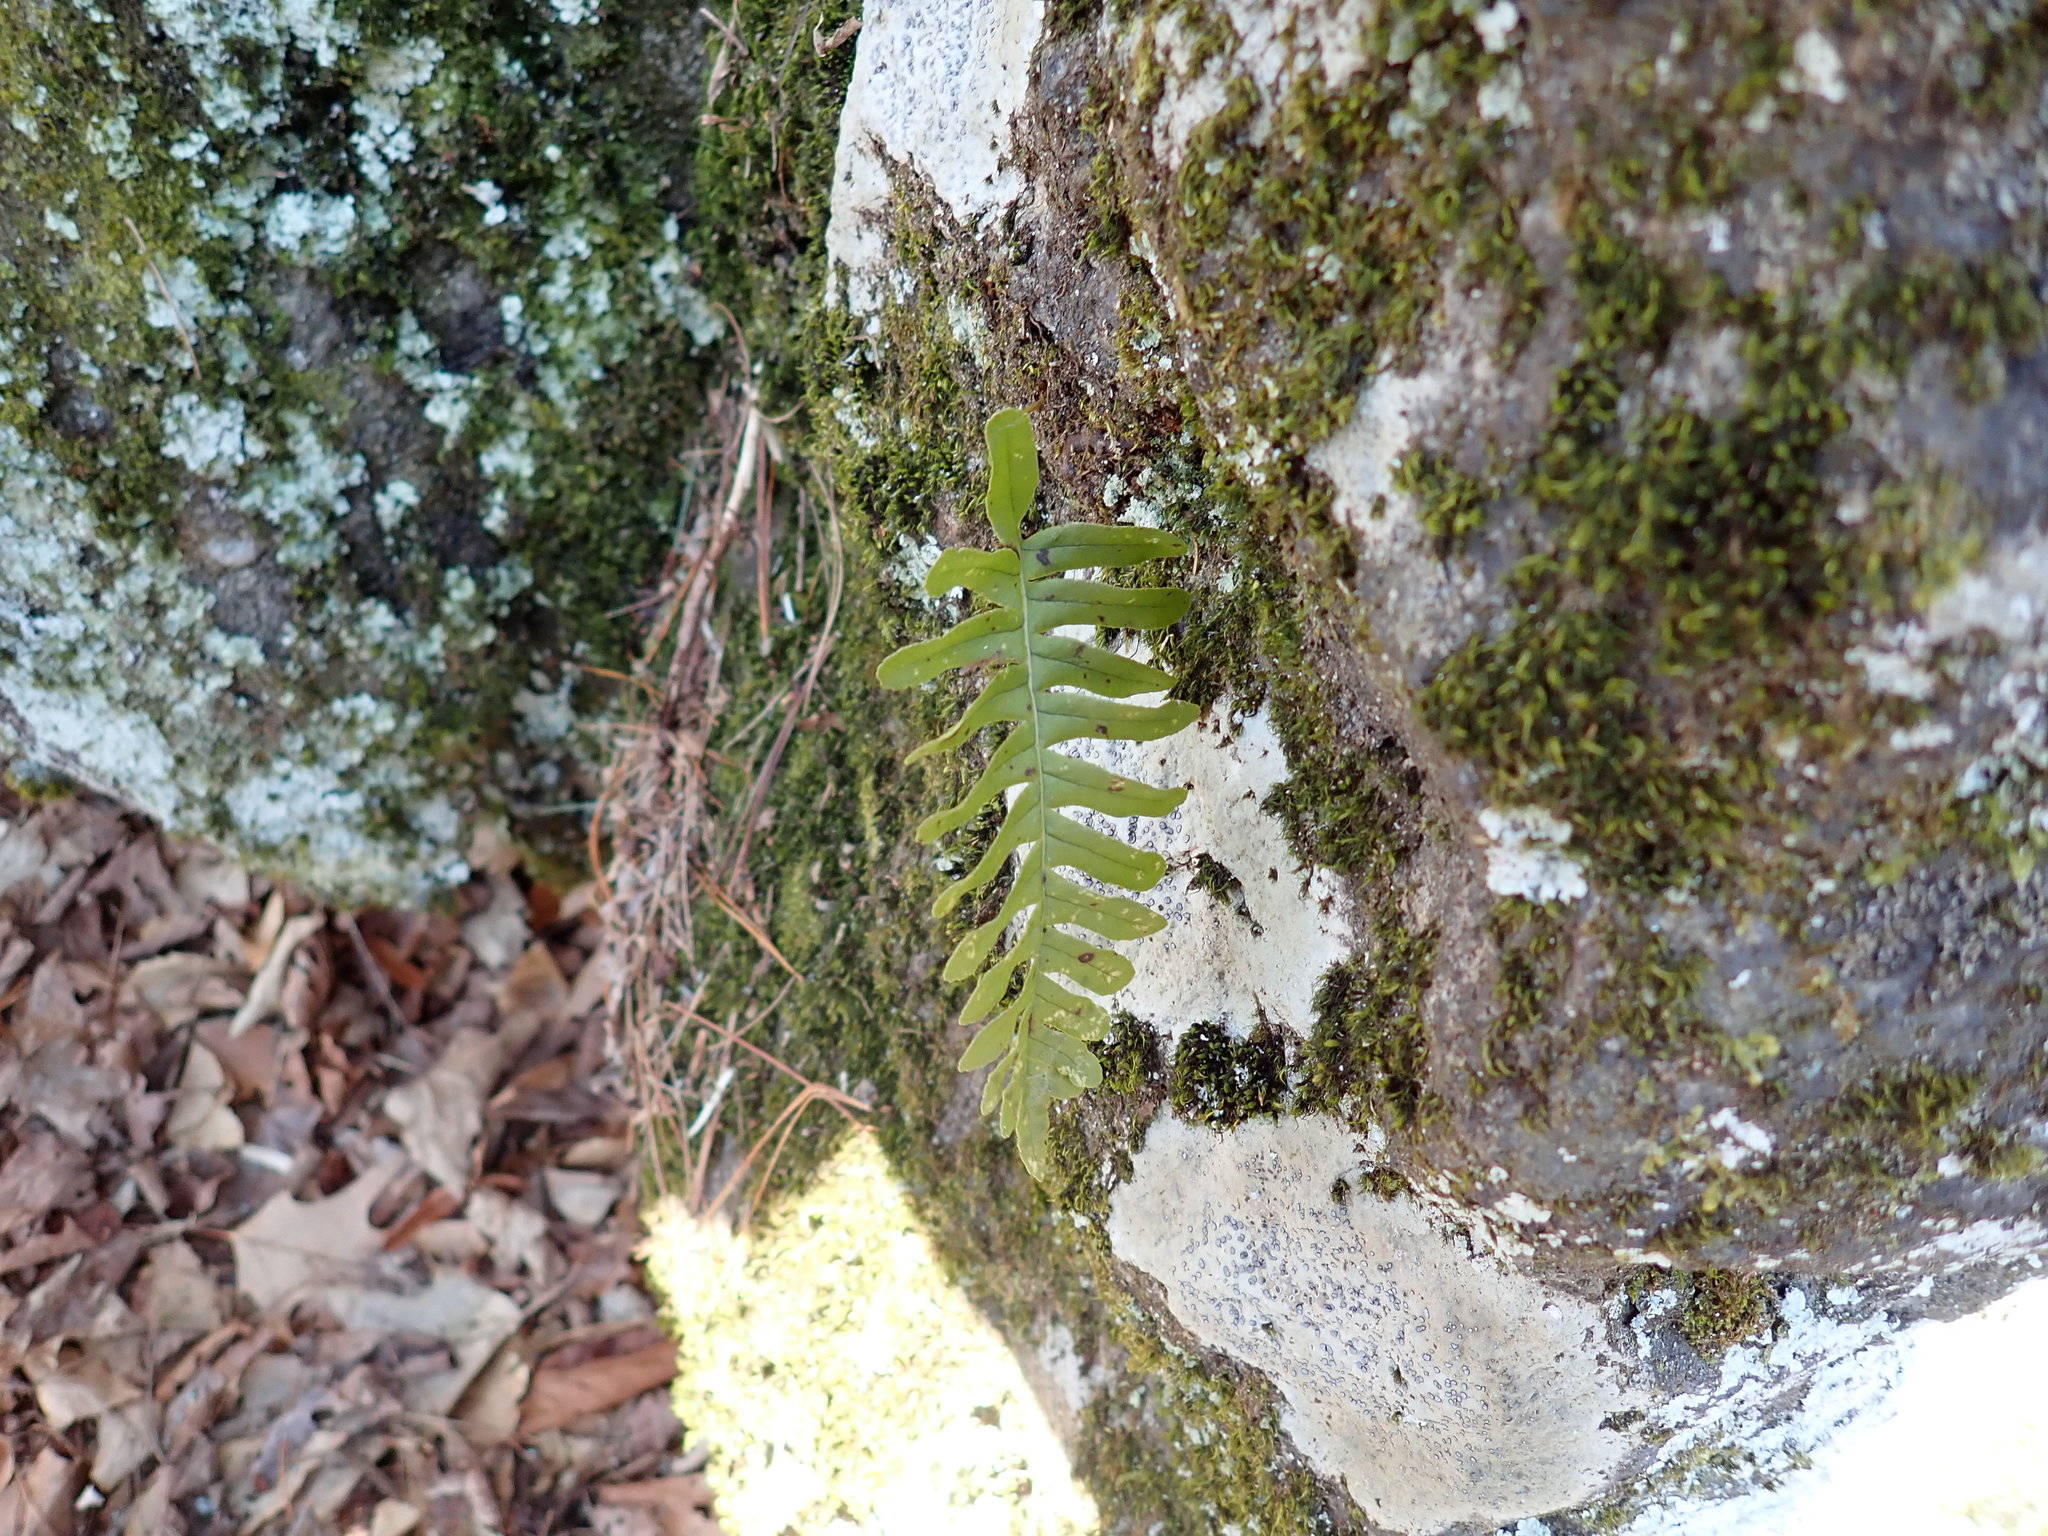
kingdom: Plantae
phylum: Tracheophyta
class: Polypodiopsida
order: Polypodiales
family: Polypodiaceae
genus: Polypodium
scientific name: Polypodium
